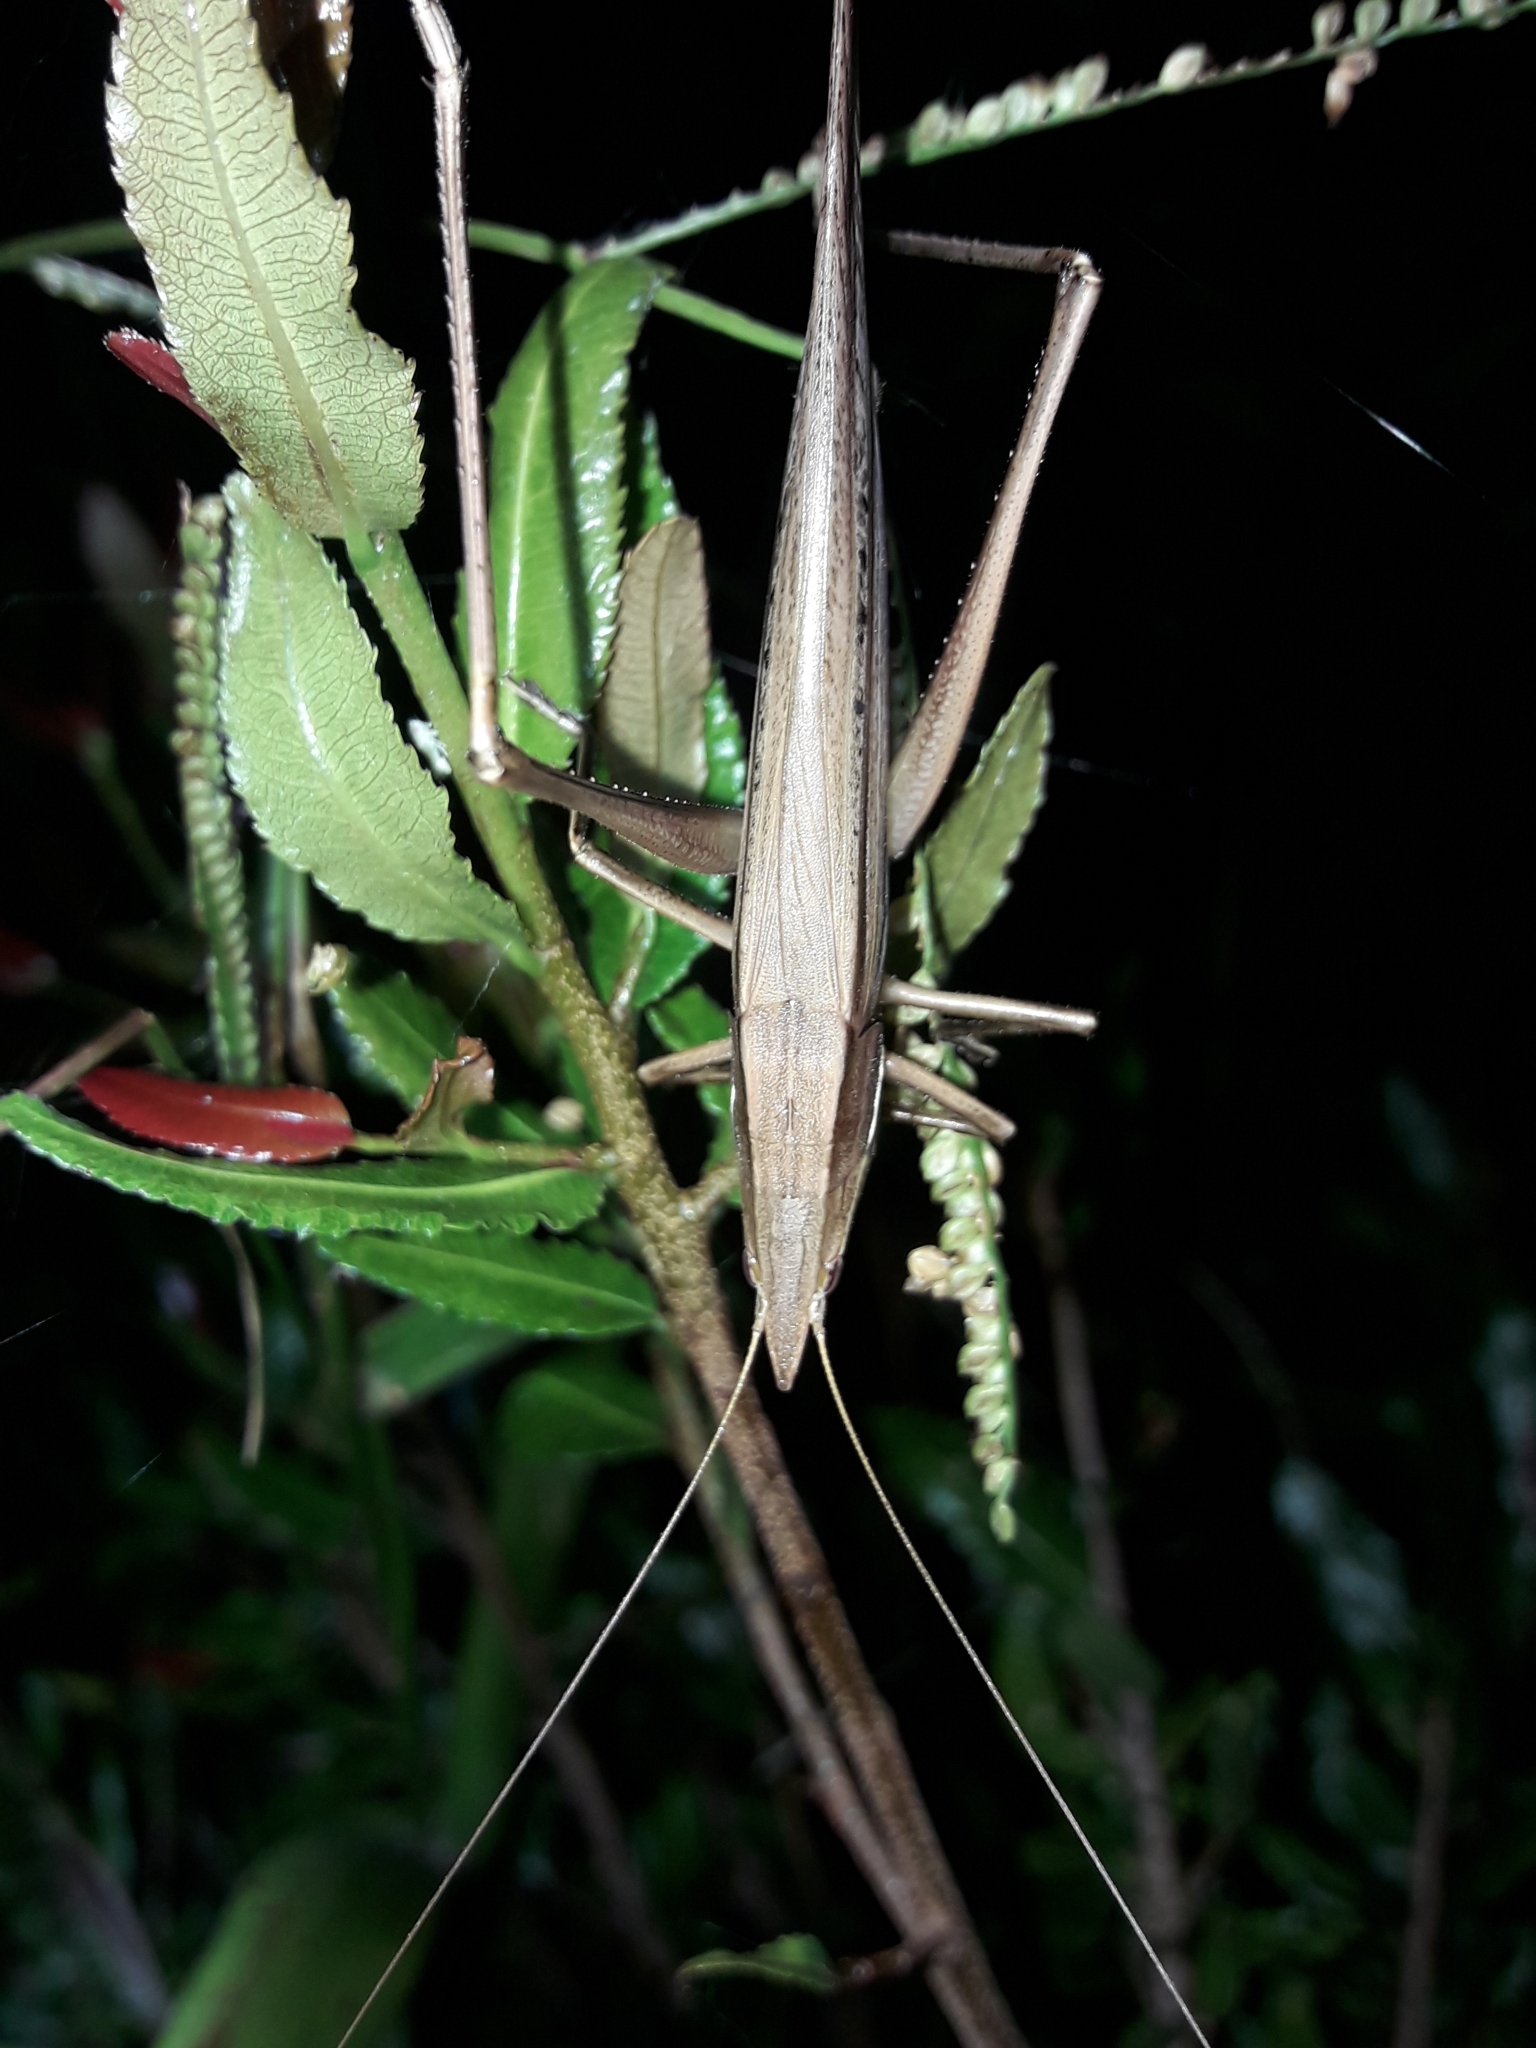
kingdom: Animalia
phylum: Arthropoda
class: Insecta
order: Orthoptera
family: Tettigoniidae
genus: Pseudorhynchus
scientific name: Pseudorhynchus lessonii
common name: Lesson's mimicking snout nose
